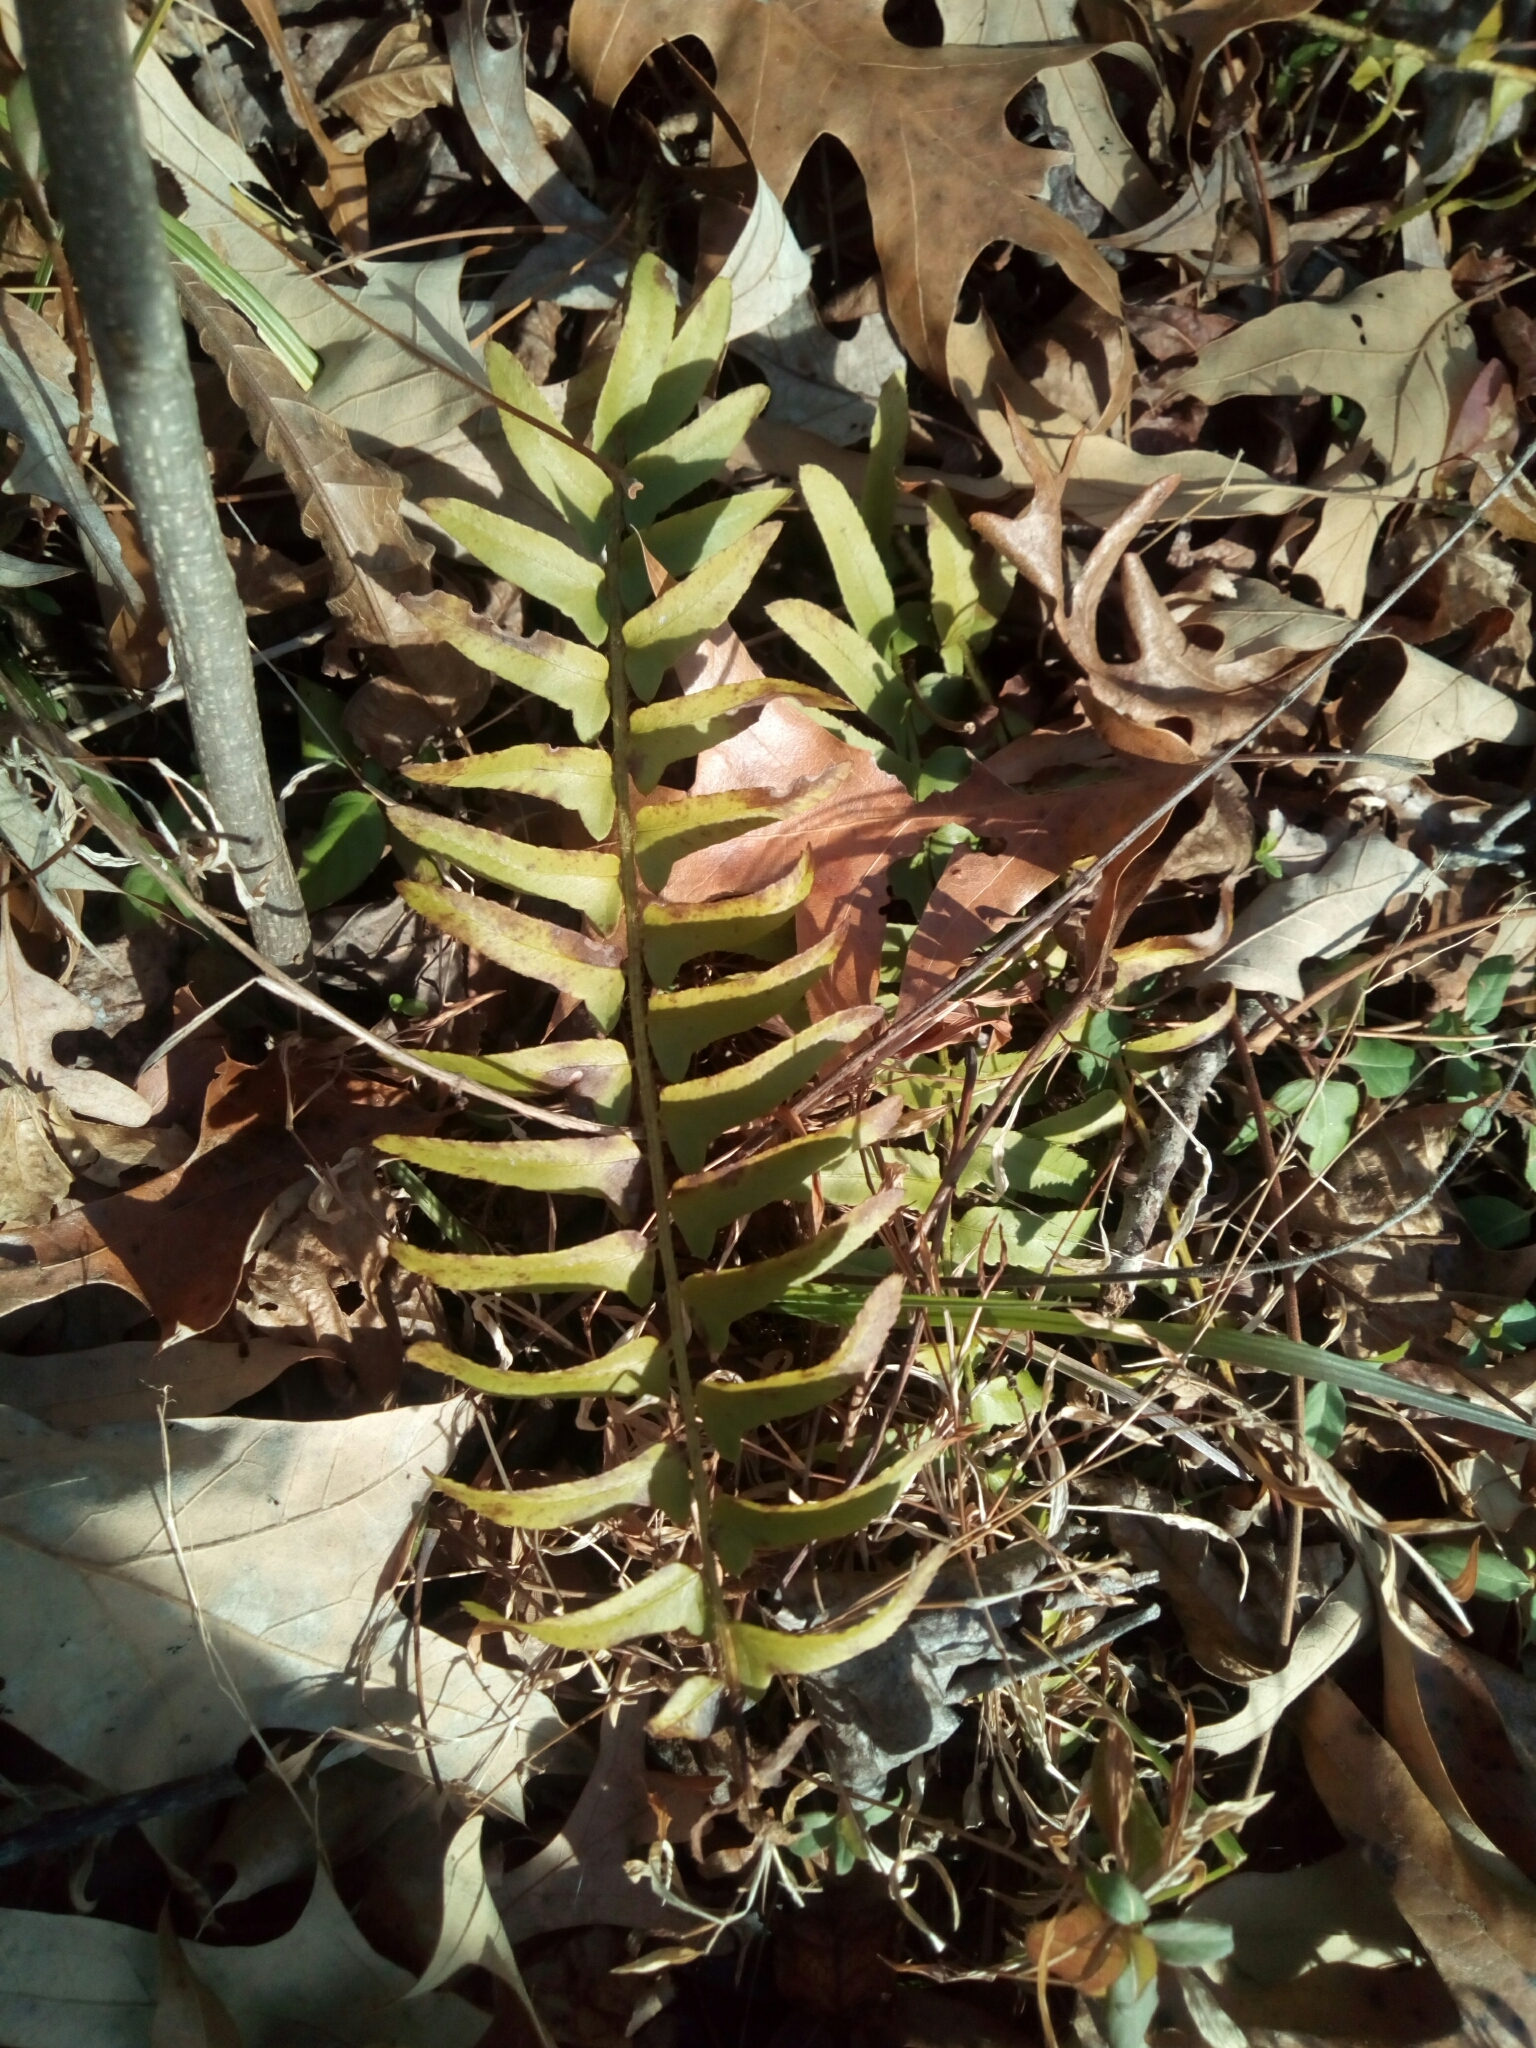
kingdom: Plantae
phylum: Tracheophyta
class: Polypodiopsida
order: Polypodiales
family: Dryopteridaceae
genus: Polystichum
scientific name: Polystichum acrostichoides
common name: Christmas fern
